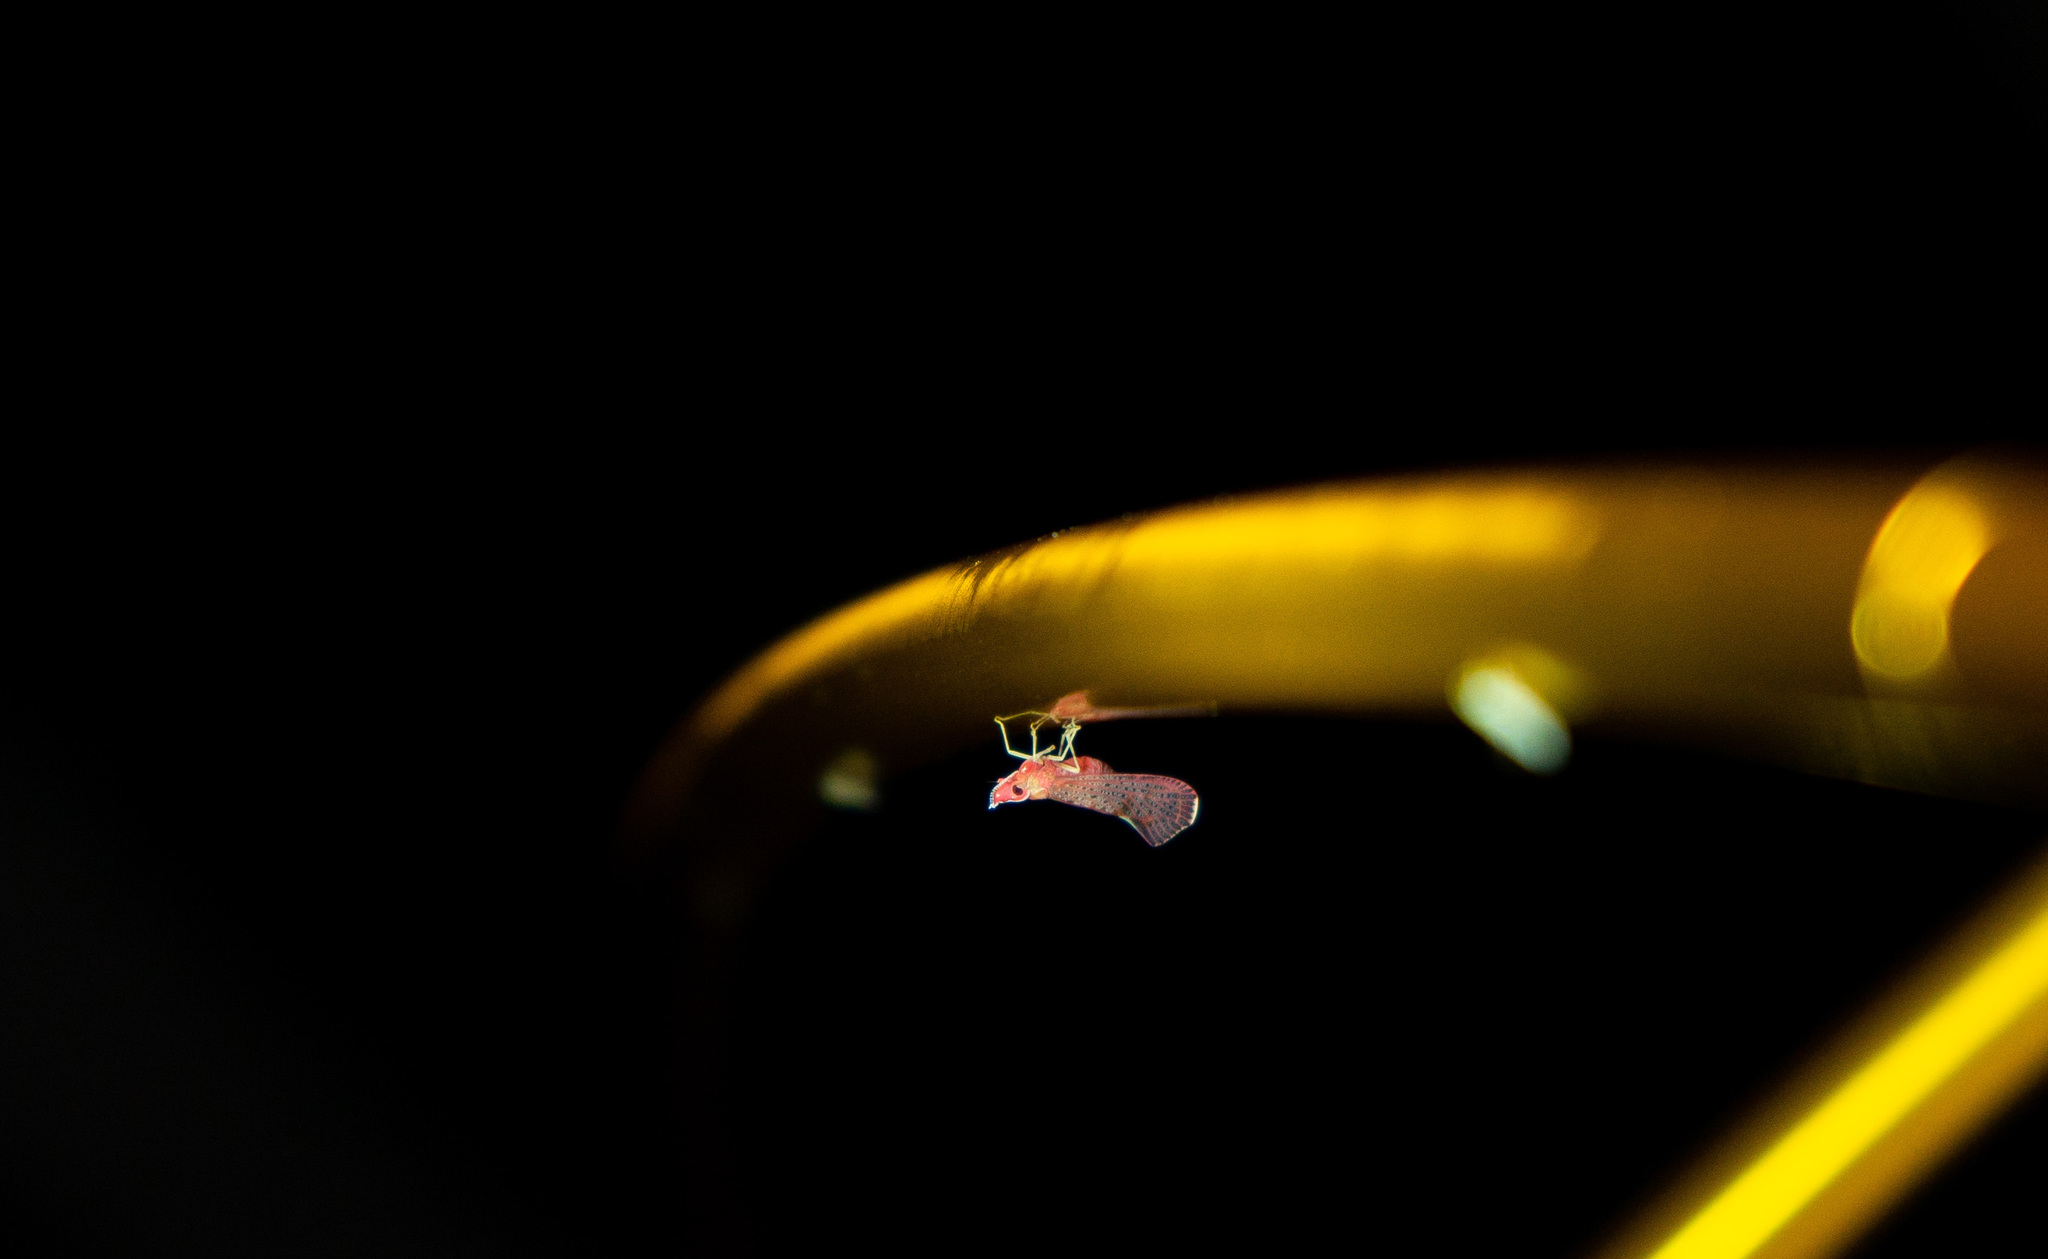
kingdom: Animalia
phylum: Arthropoda
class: Insecta
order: Hemiptera
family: Derbidae
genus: Apache
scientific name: Apache degeeri
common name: Red-fanned planthopper
